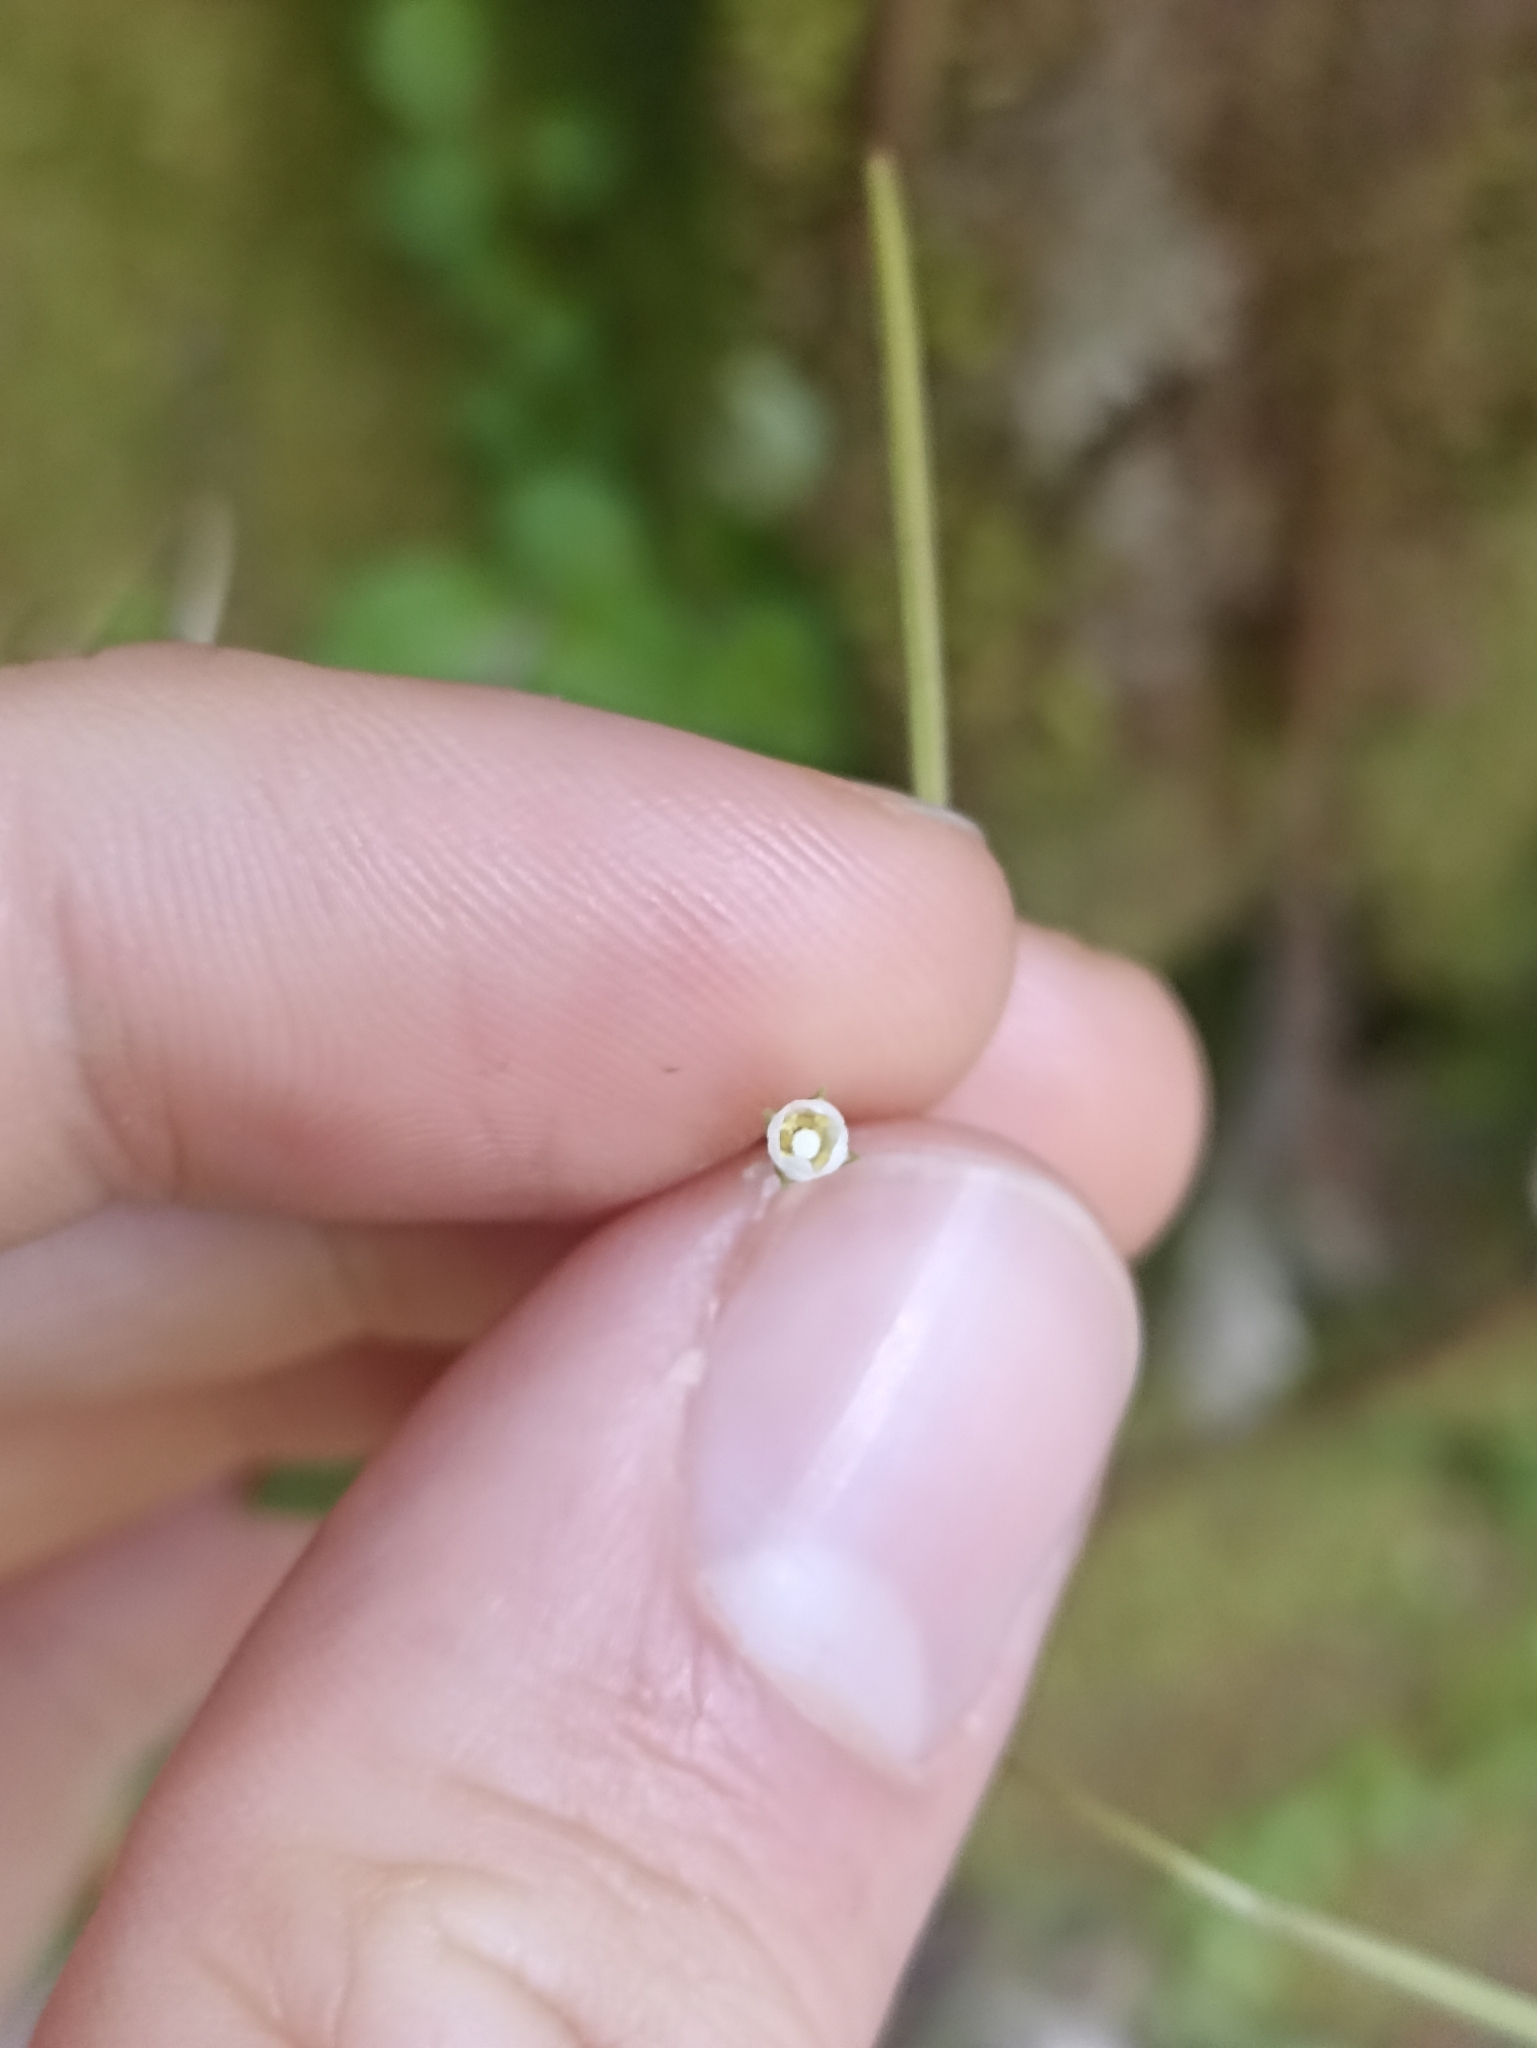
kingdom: Plantae
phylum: Tracheophyta
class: Magnoliopsida
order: Myrtales
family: Onagraceae
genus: Epilobium
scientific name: Epilobium rotundifolium
